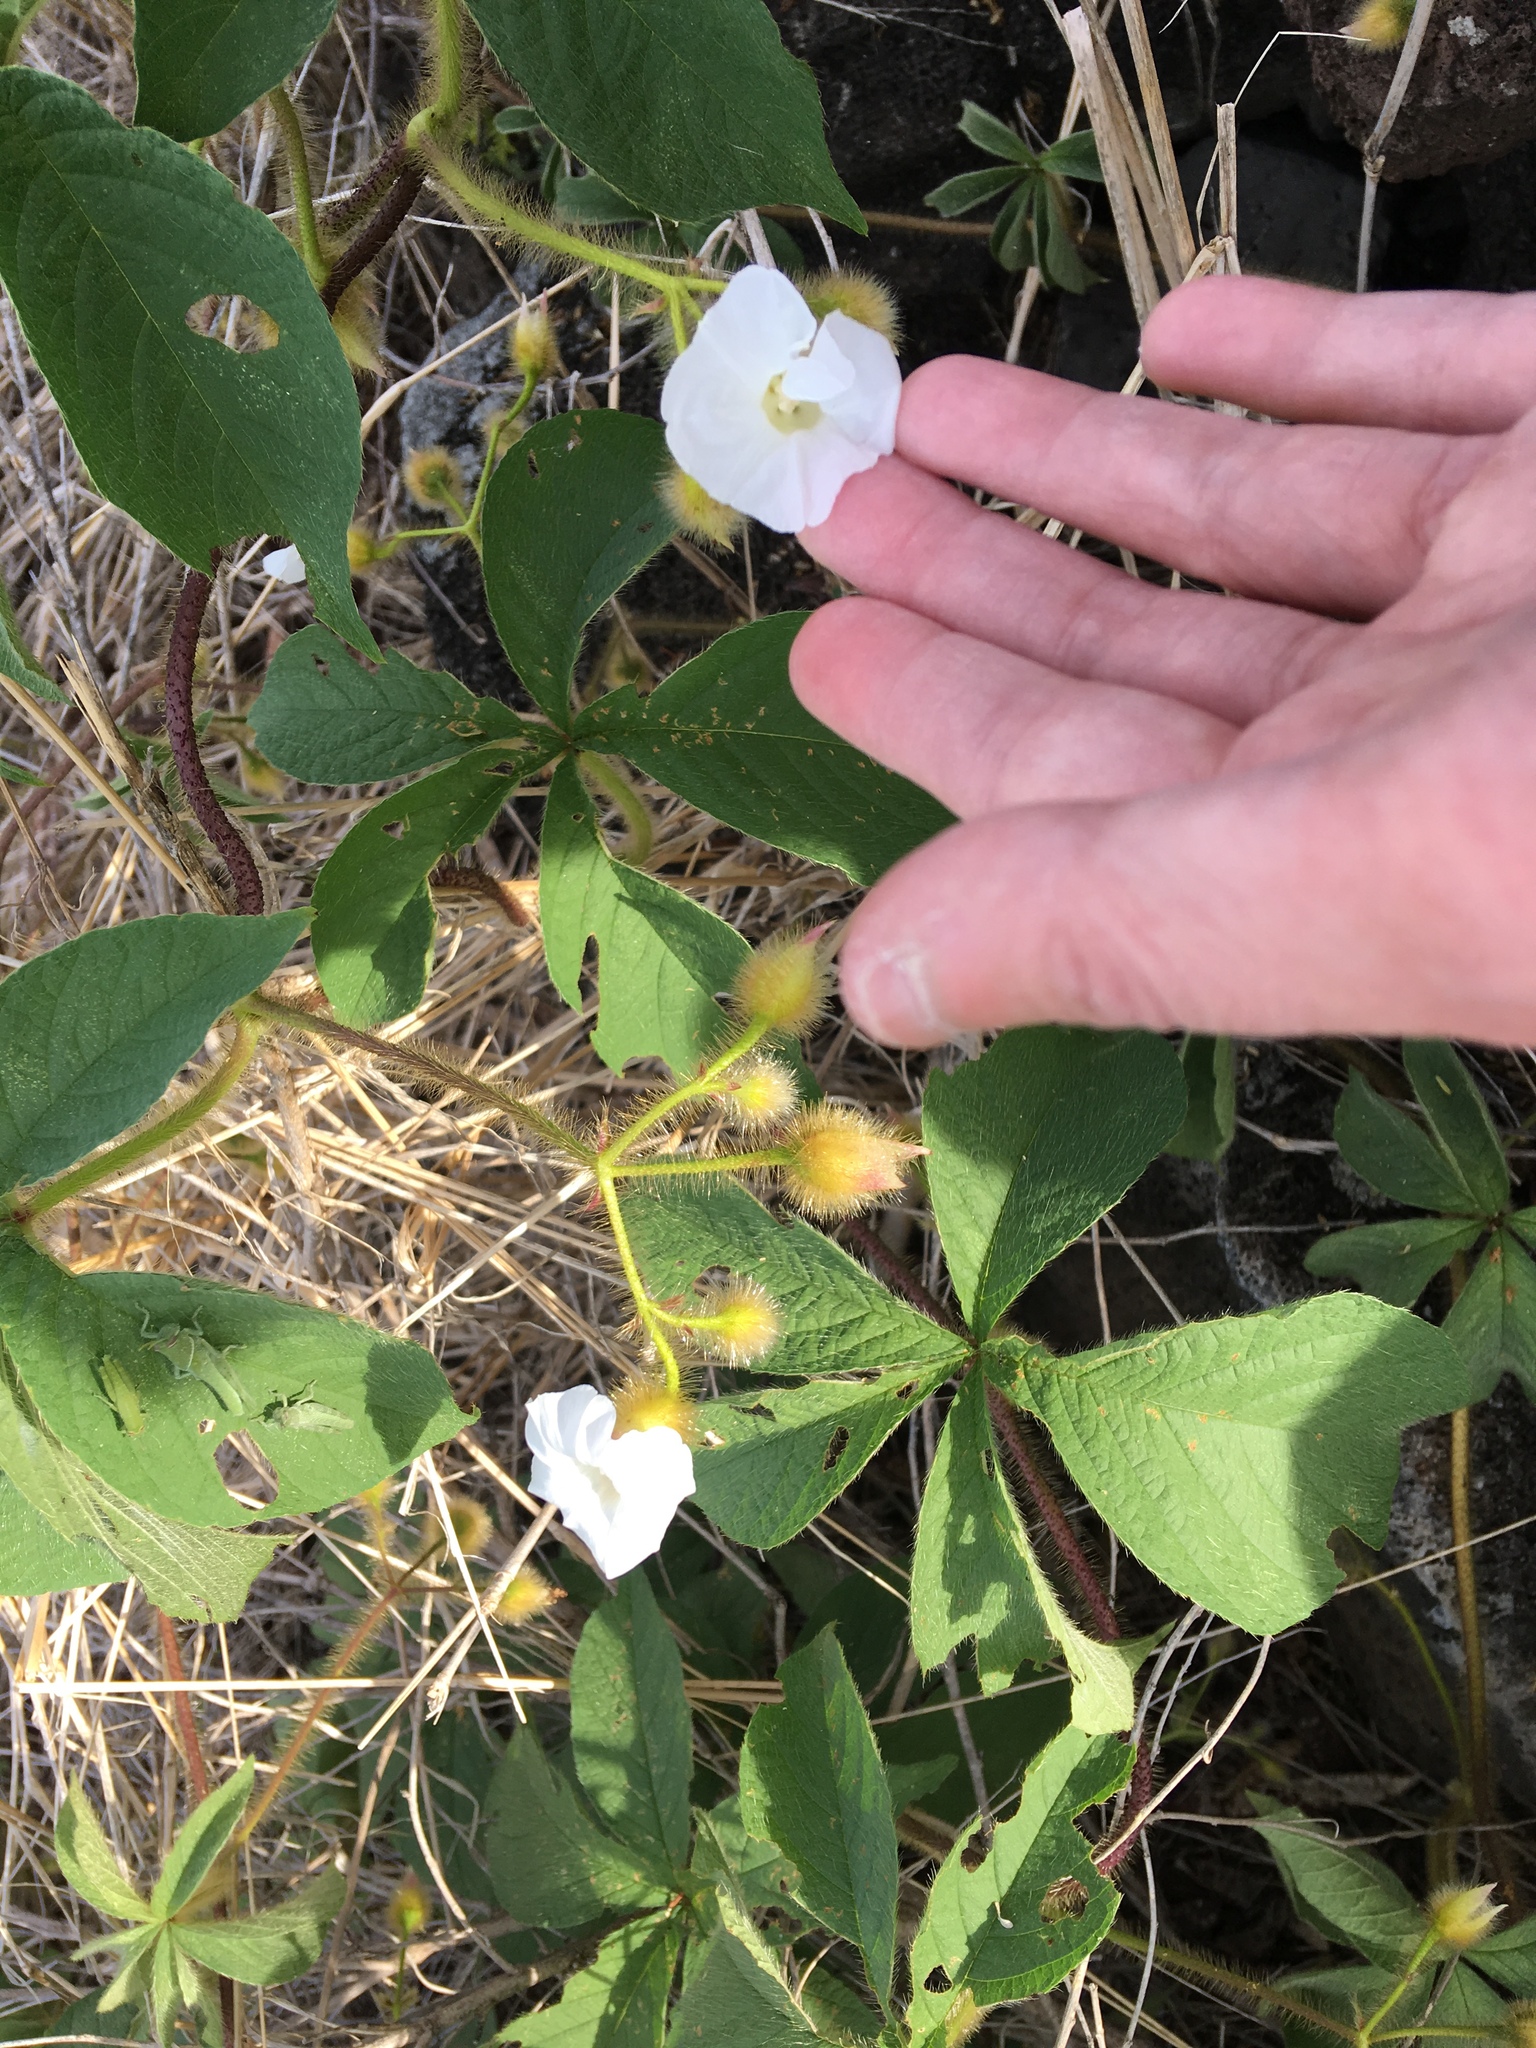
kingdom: Plantae
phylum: Tracheophyta
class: Magnoliopsida
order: Solanales
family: Convolvulaceae
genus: Distimake
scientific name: Distimake aegyptius
